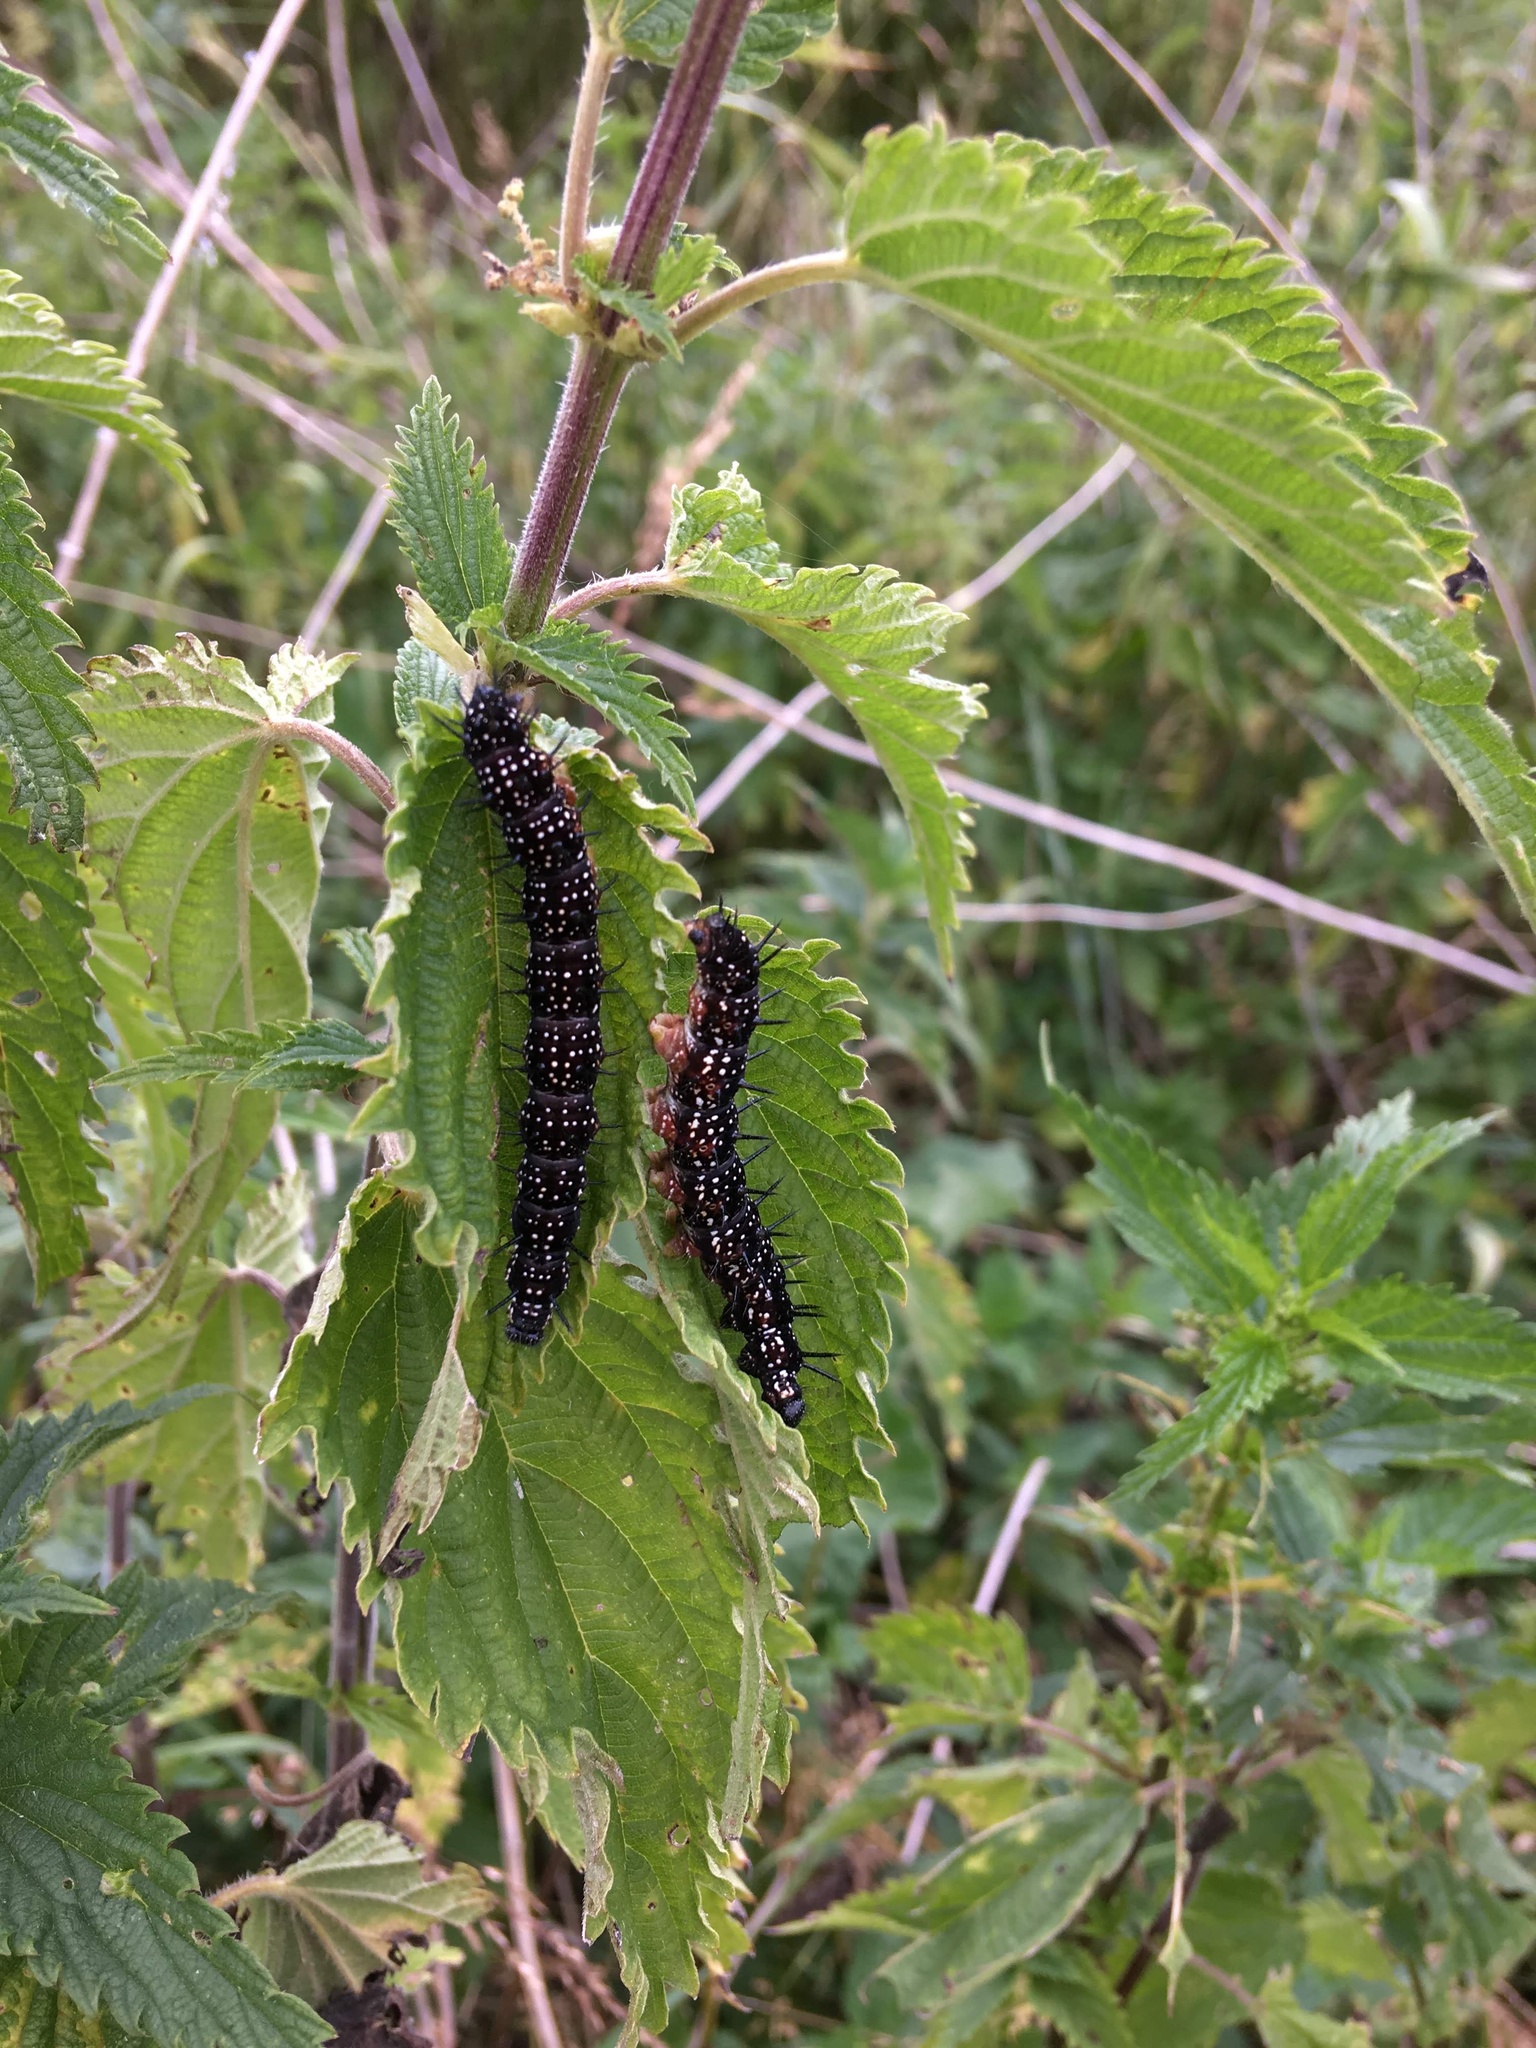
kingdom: Animalia
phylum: Arthropoda
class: Insecta
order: Lepidoptera
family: Nymphalidae
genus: Aglais
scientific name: Aglais io
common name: Peacock
